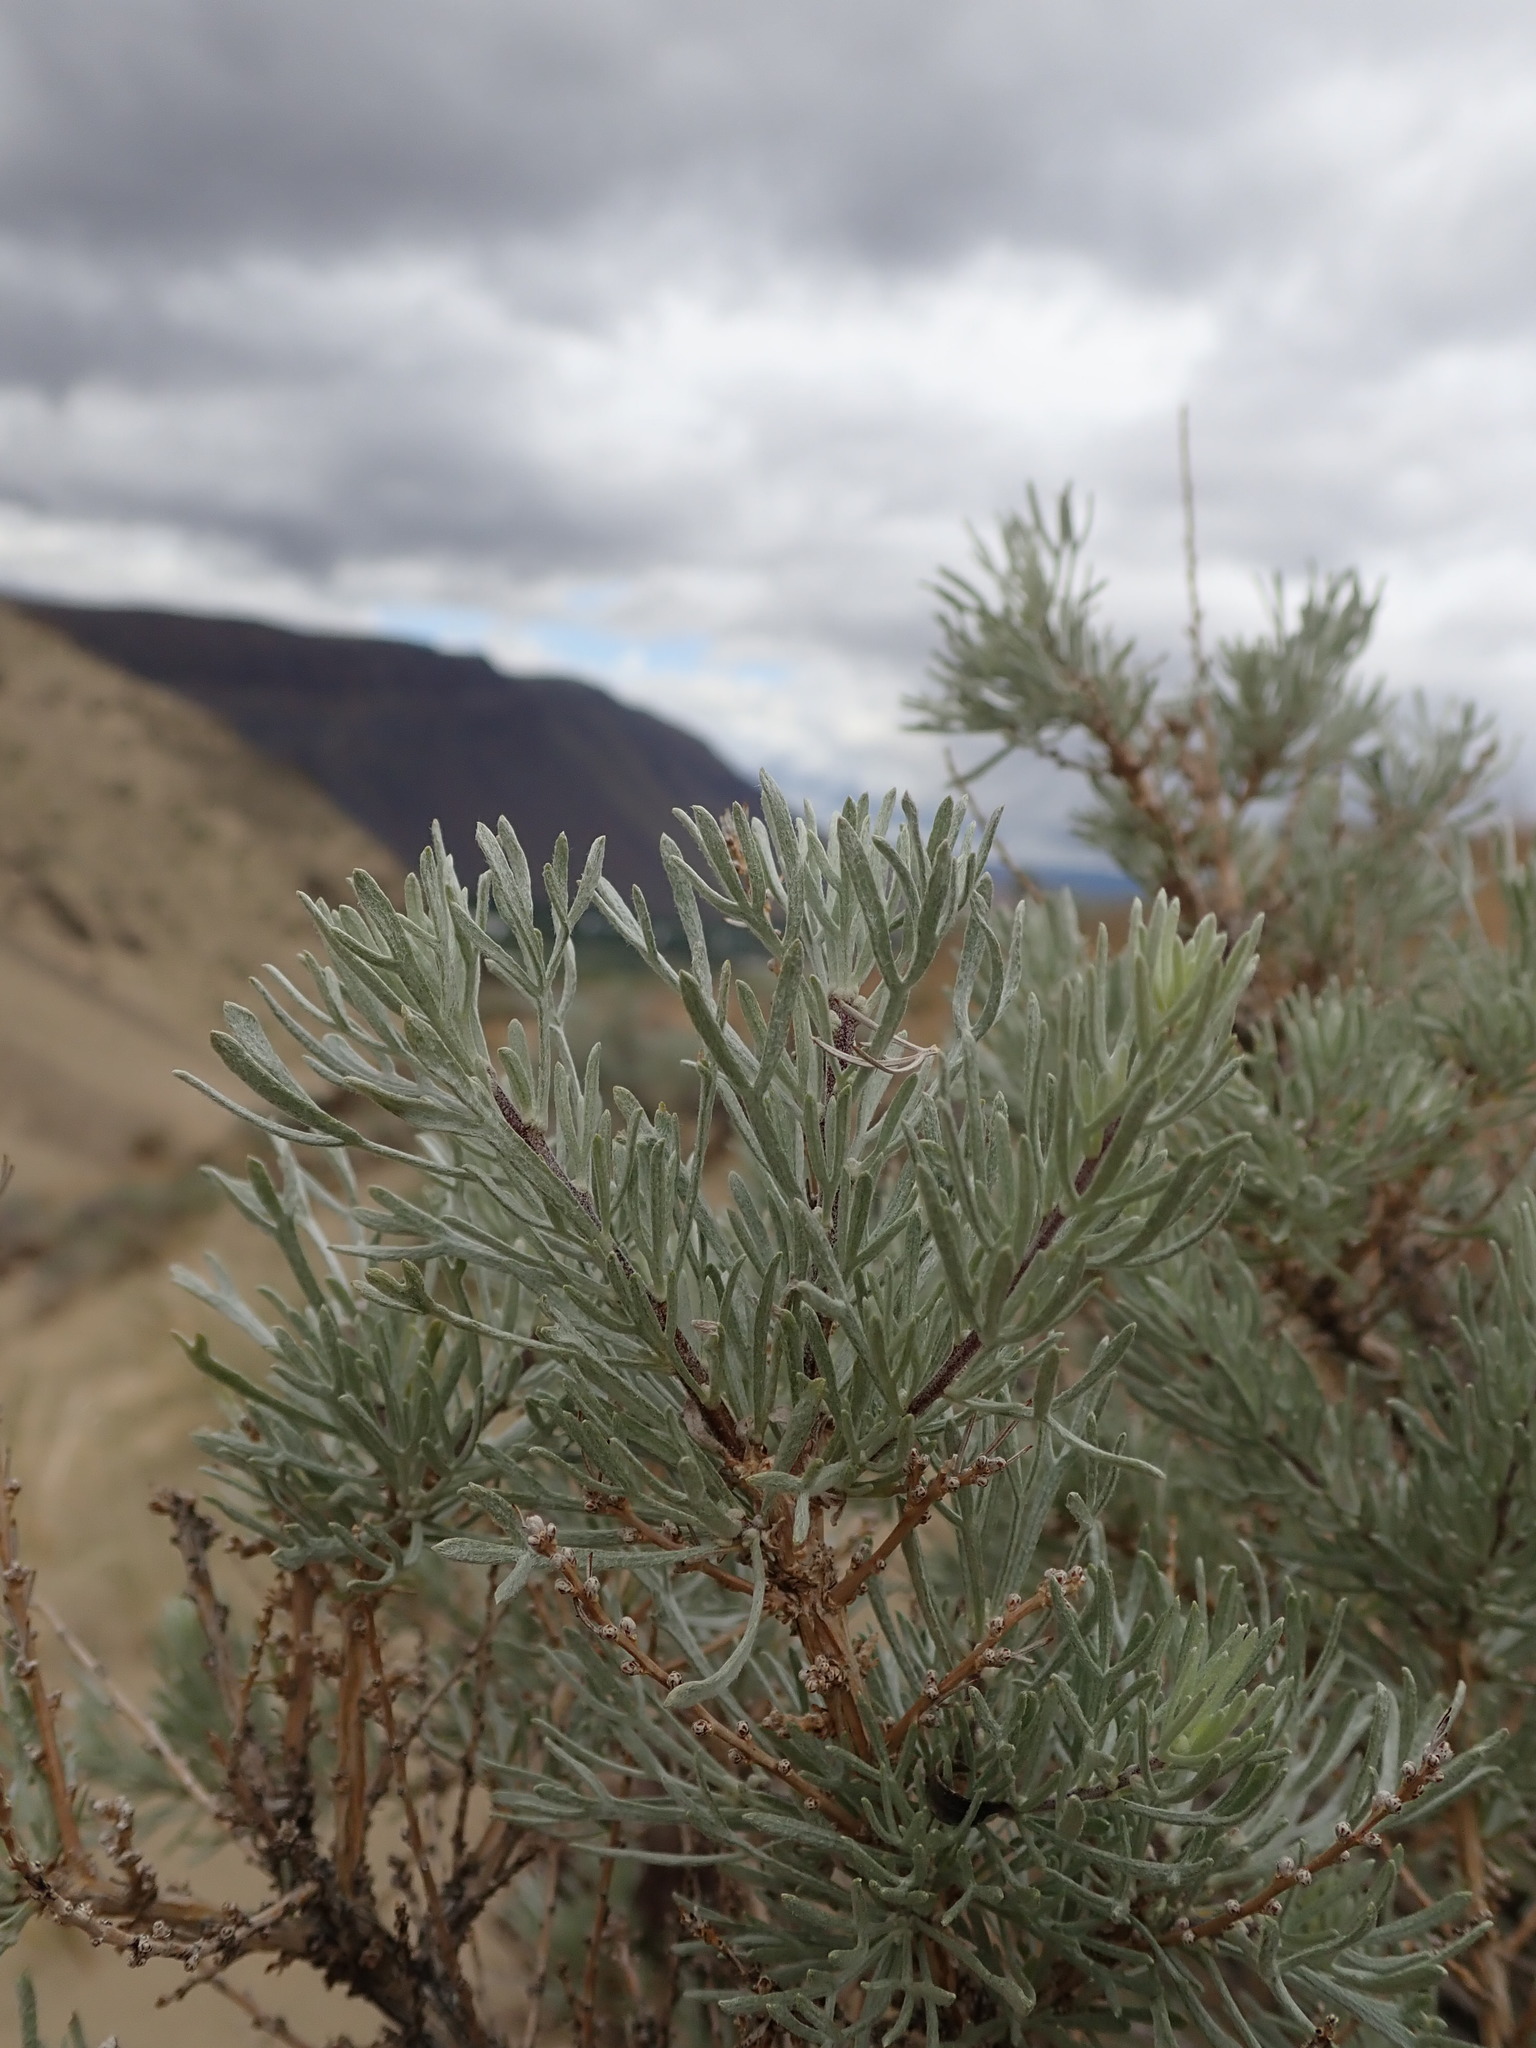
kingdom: Plantae
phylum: Tracheophyta
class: Magnoliopsida
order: Asterales
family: Asteraceae
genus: Artemisia
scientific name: Artemisia rigida
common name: Scabland sagebrush
